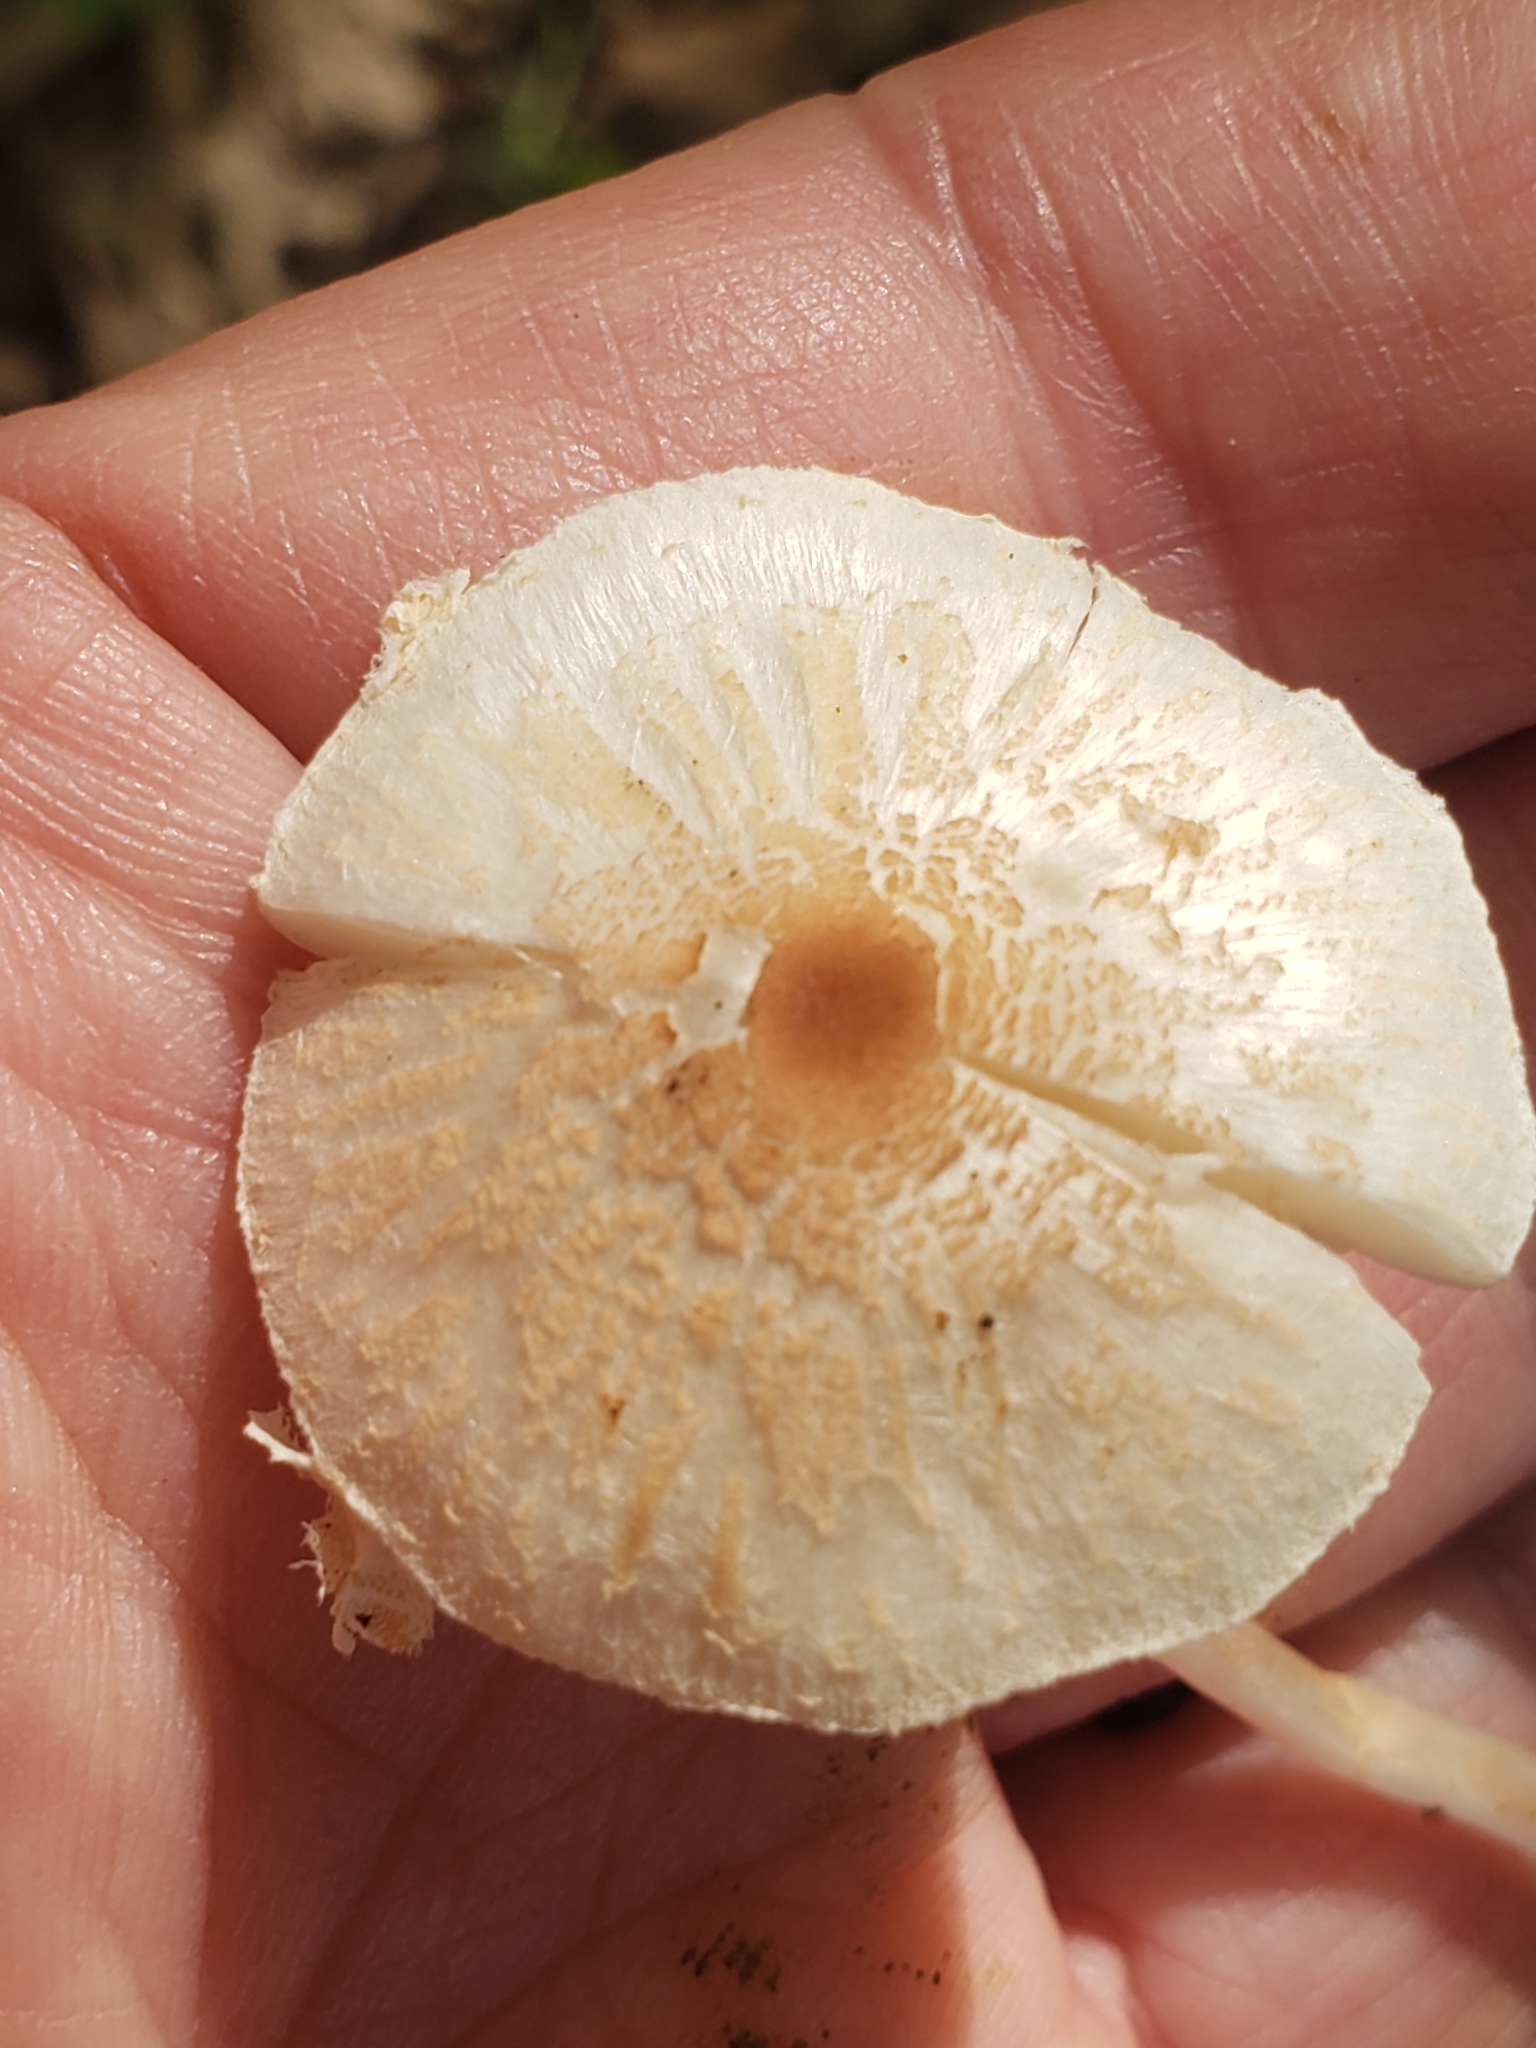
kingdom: Fungi
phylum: Basidiomycota
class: Agaricomycetes
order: Agaricales
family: Agaricaceae
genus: Lepiota
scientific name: Lepiota cristata
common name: Stinking dapperling
